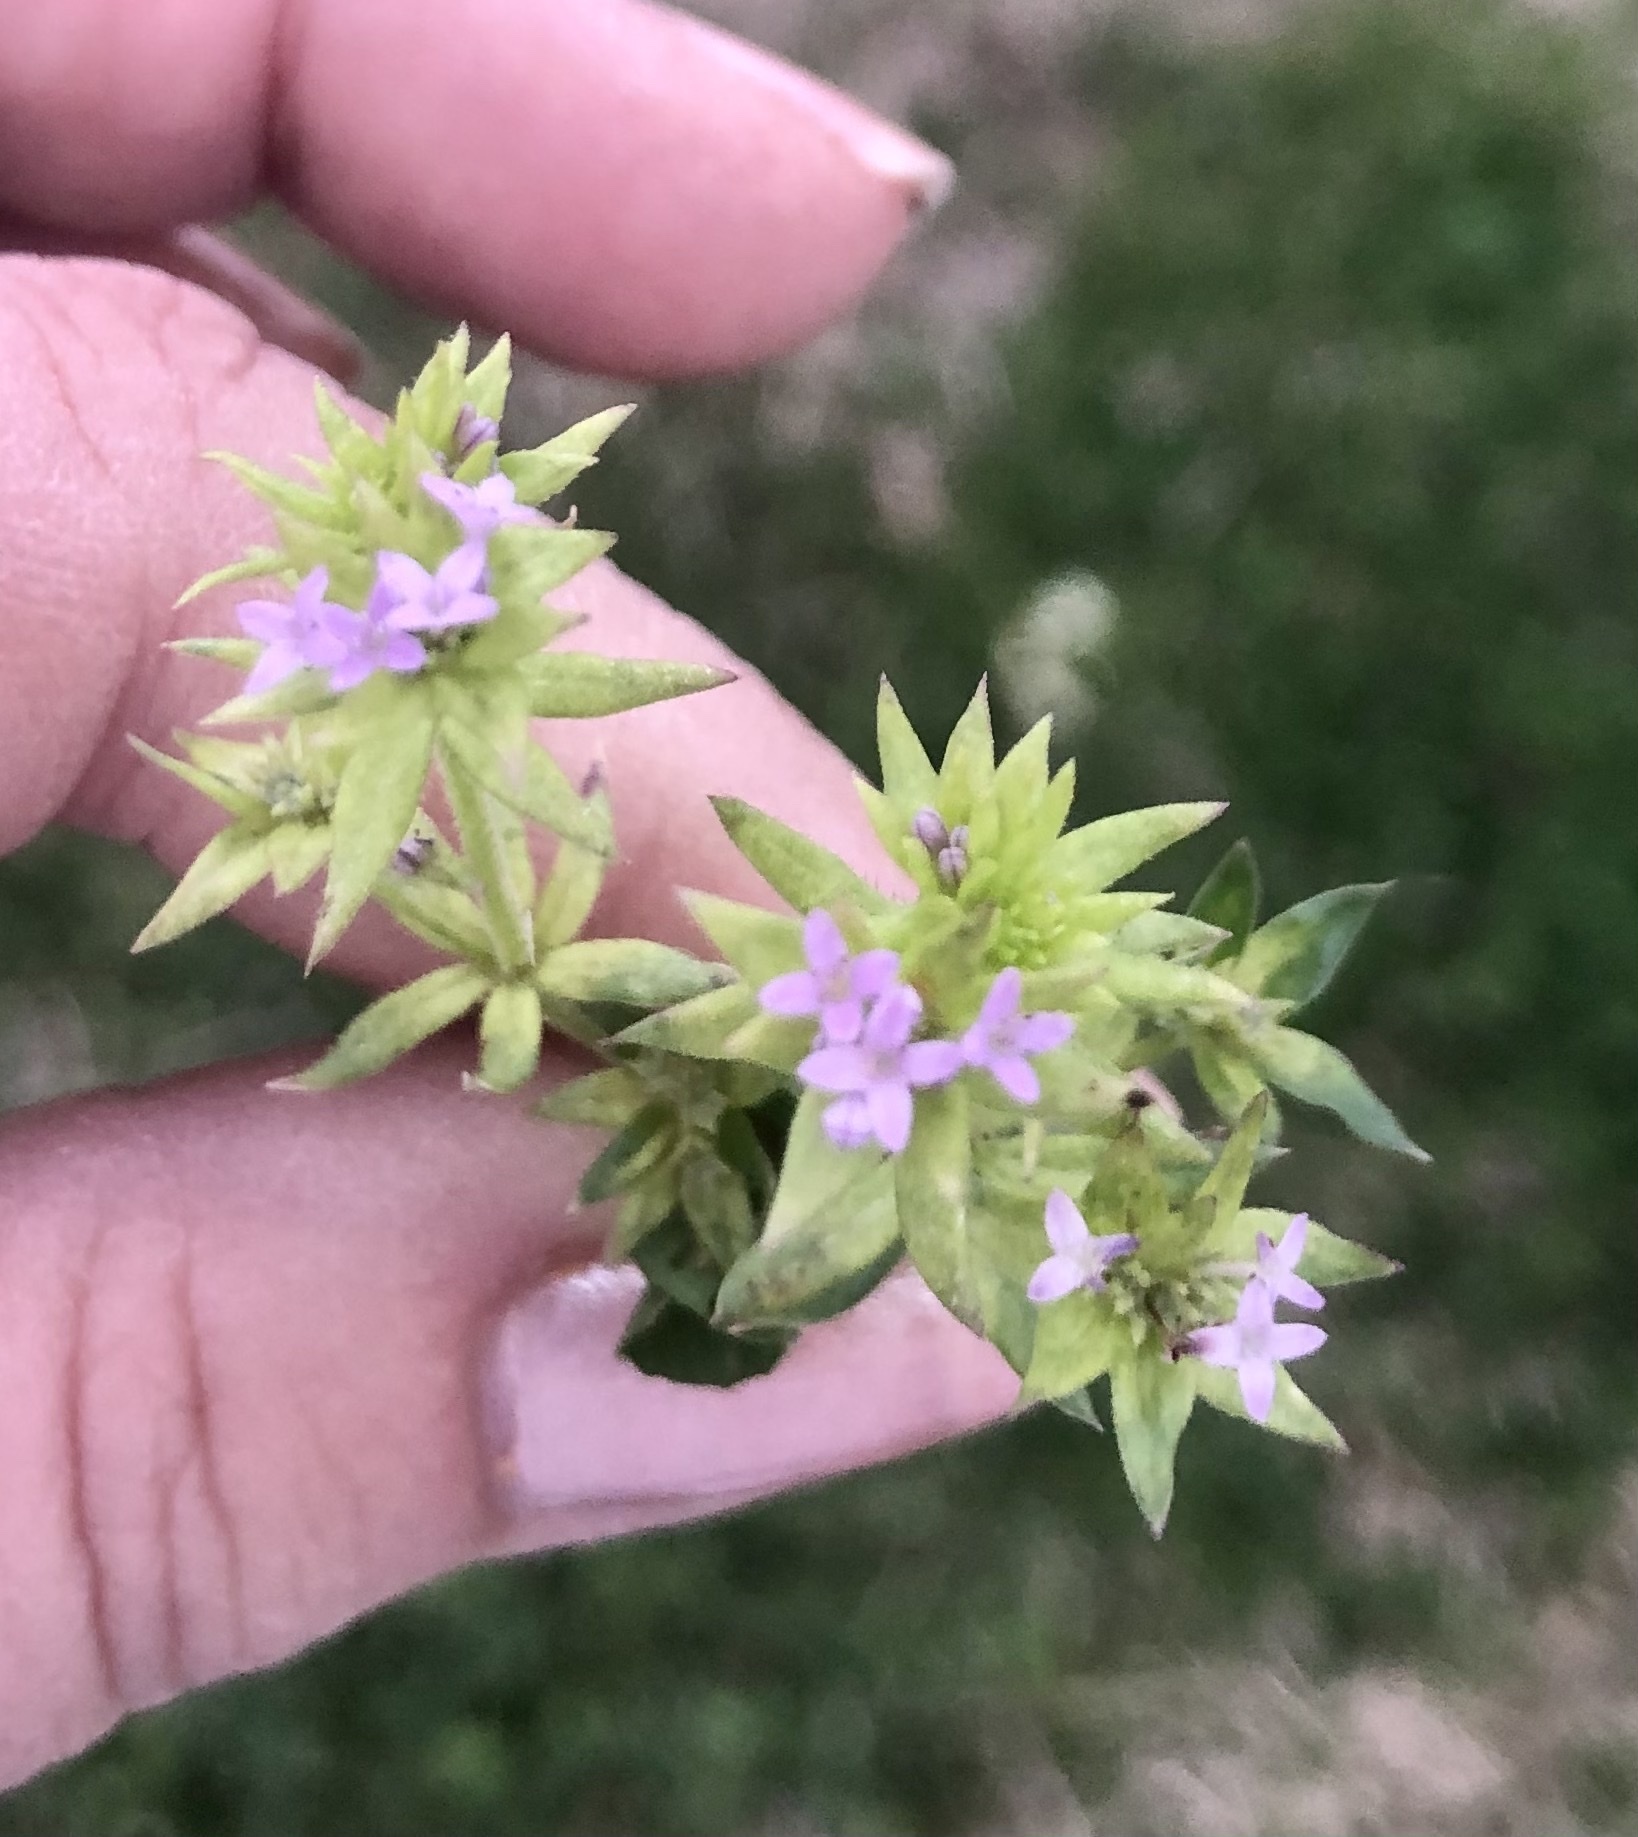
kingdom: Plantae
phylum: Tracheophyta
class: Magnoliopsida
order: Gentianales
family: Rubiaceae
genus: Sherardia
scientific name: Sherardia arvensis
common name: Field madder
